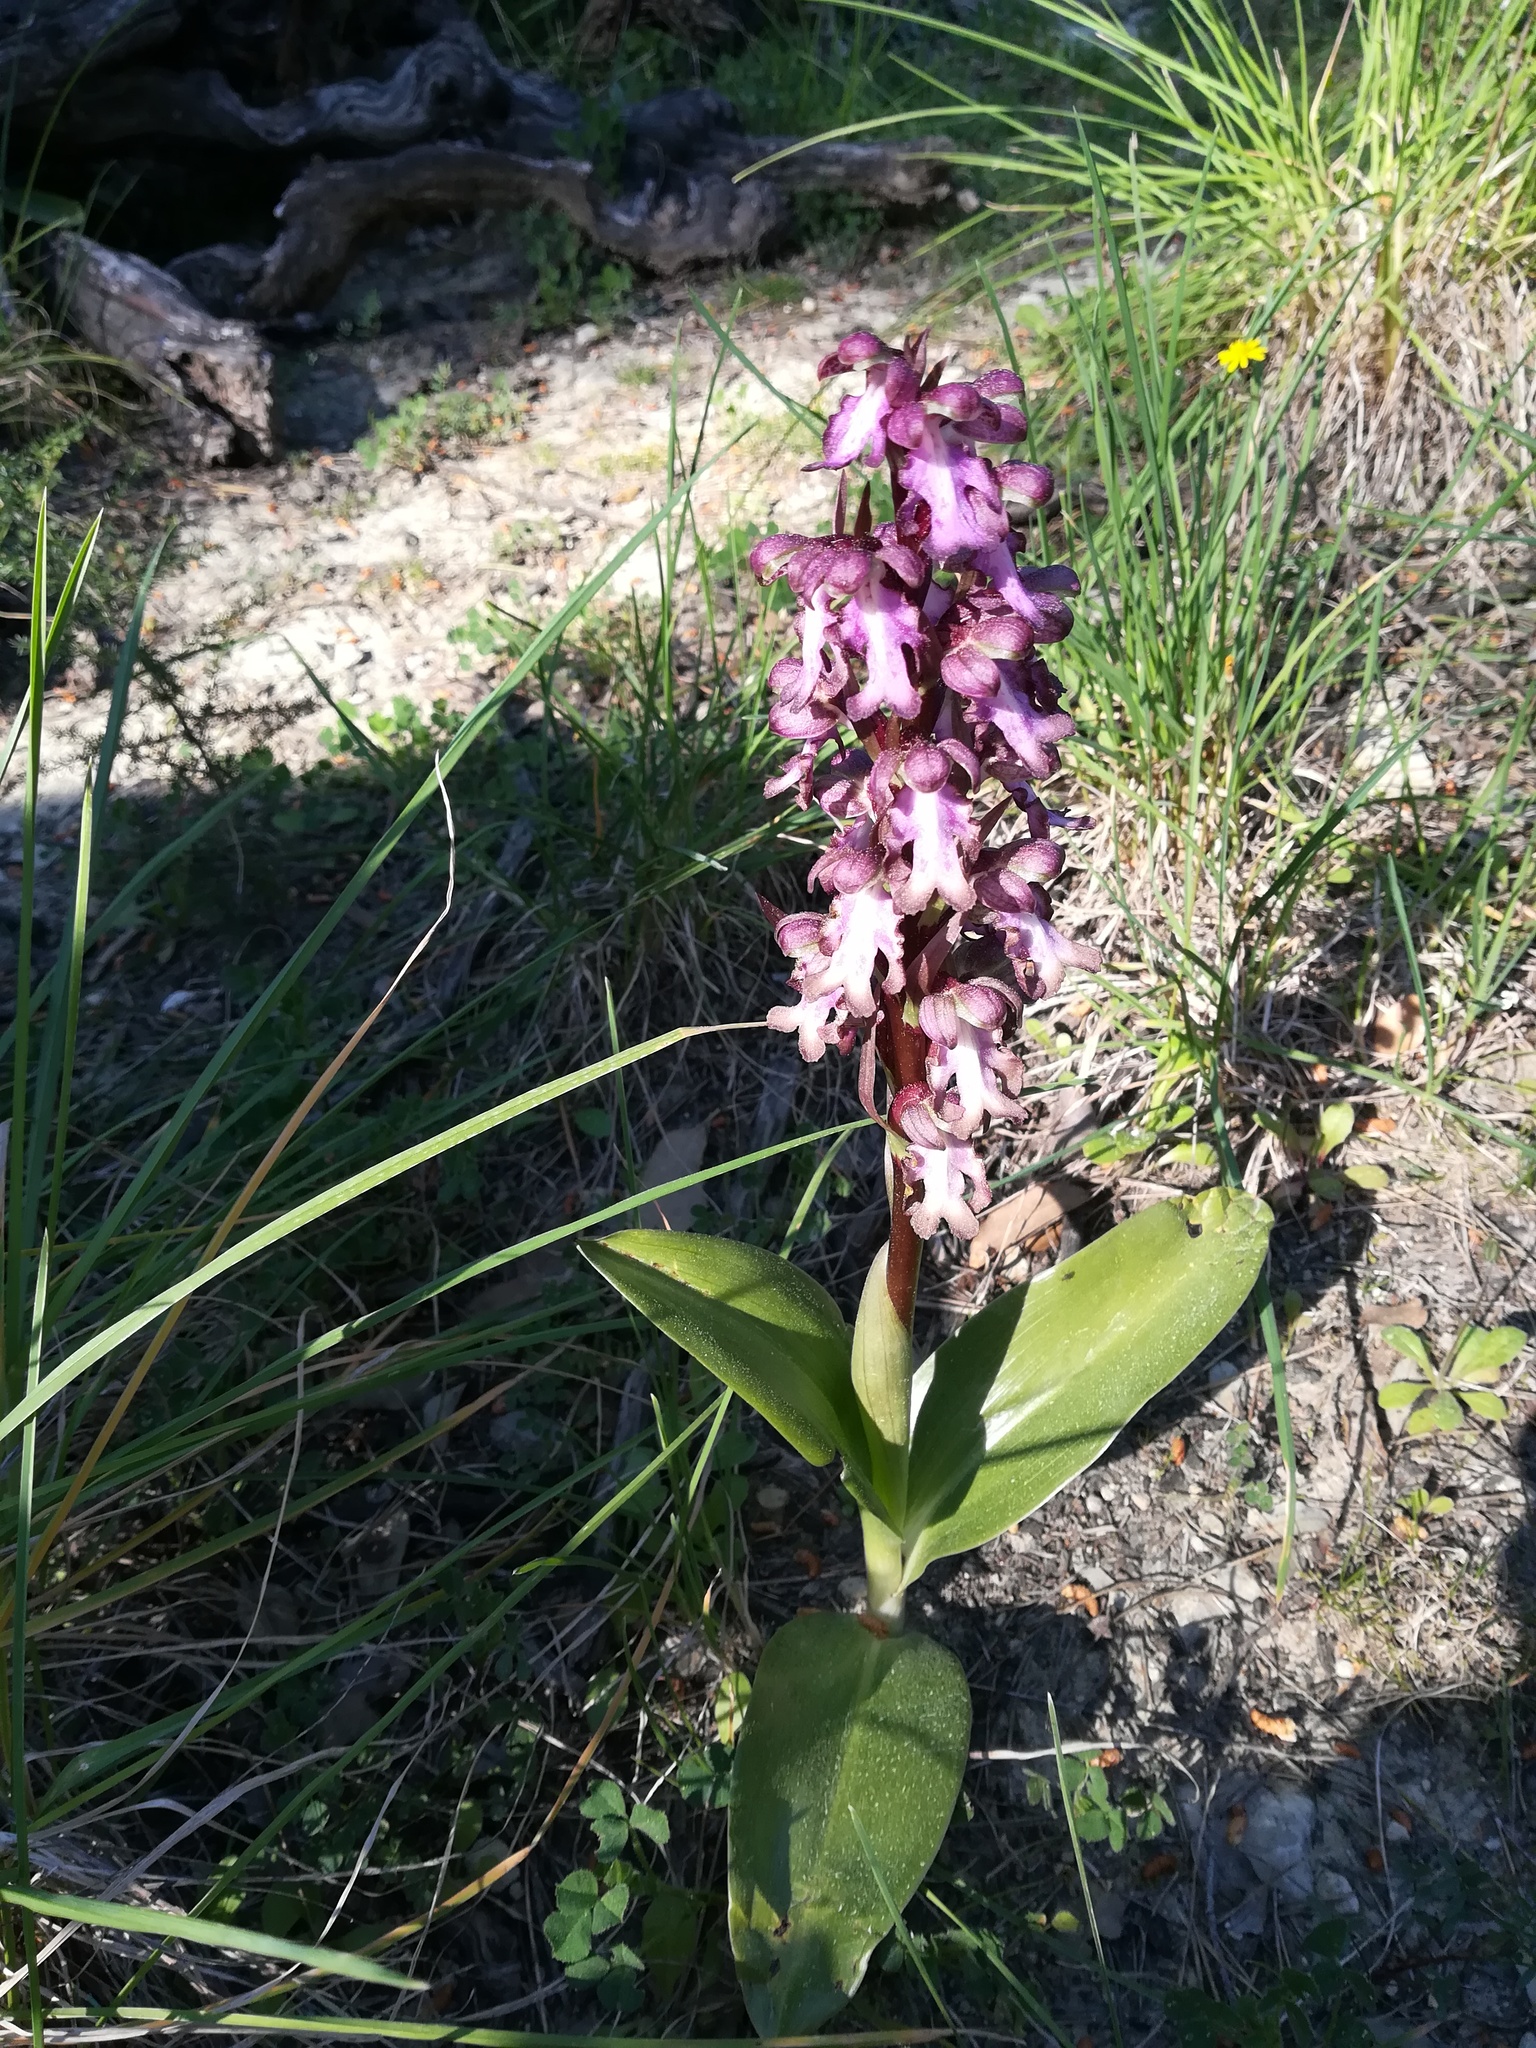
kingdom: Plantae
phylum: Tracheophyta
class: Liliopsida
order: Asparagales
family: Orchidaceae
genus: Himantoglossum
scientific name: Himantoglossum robertianum
